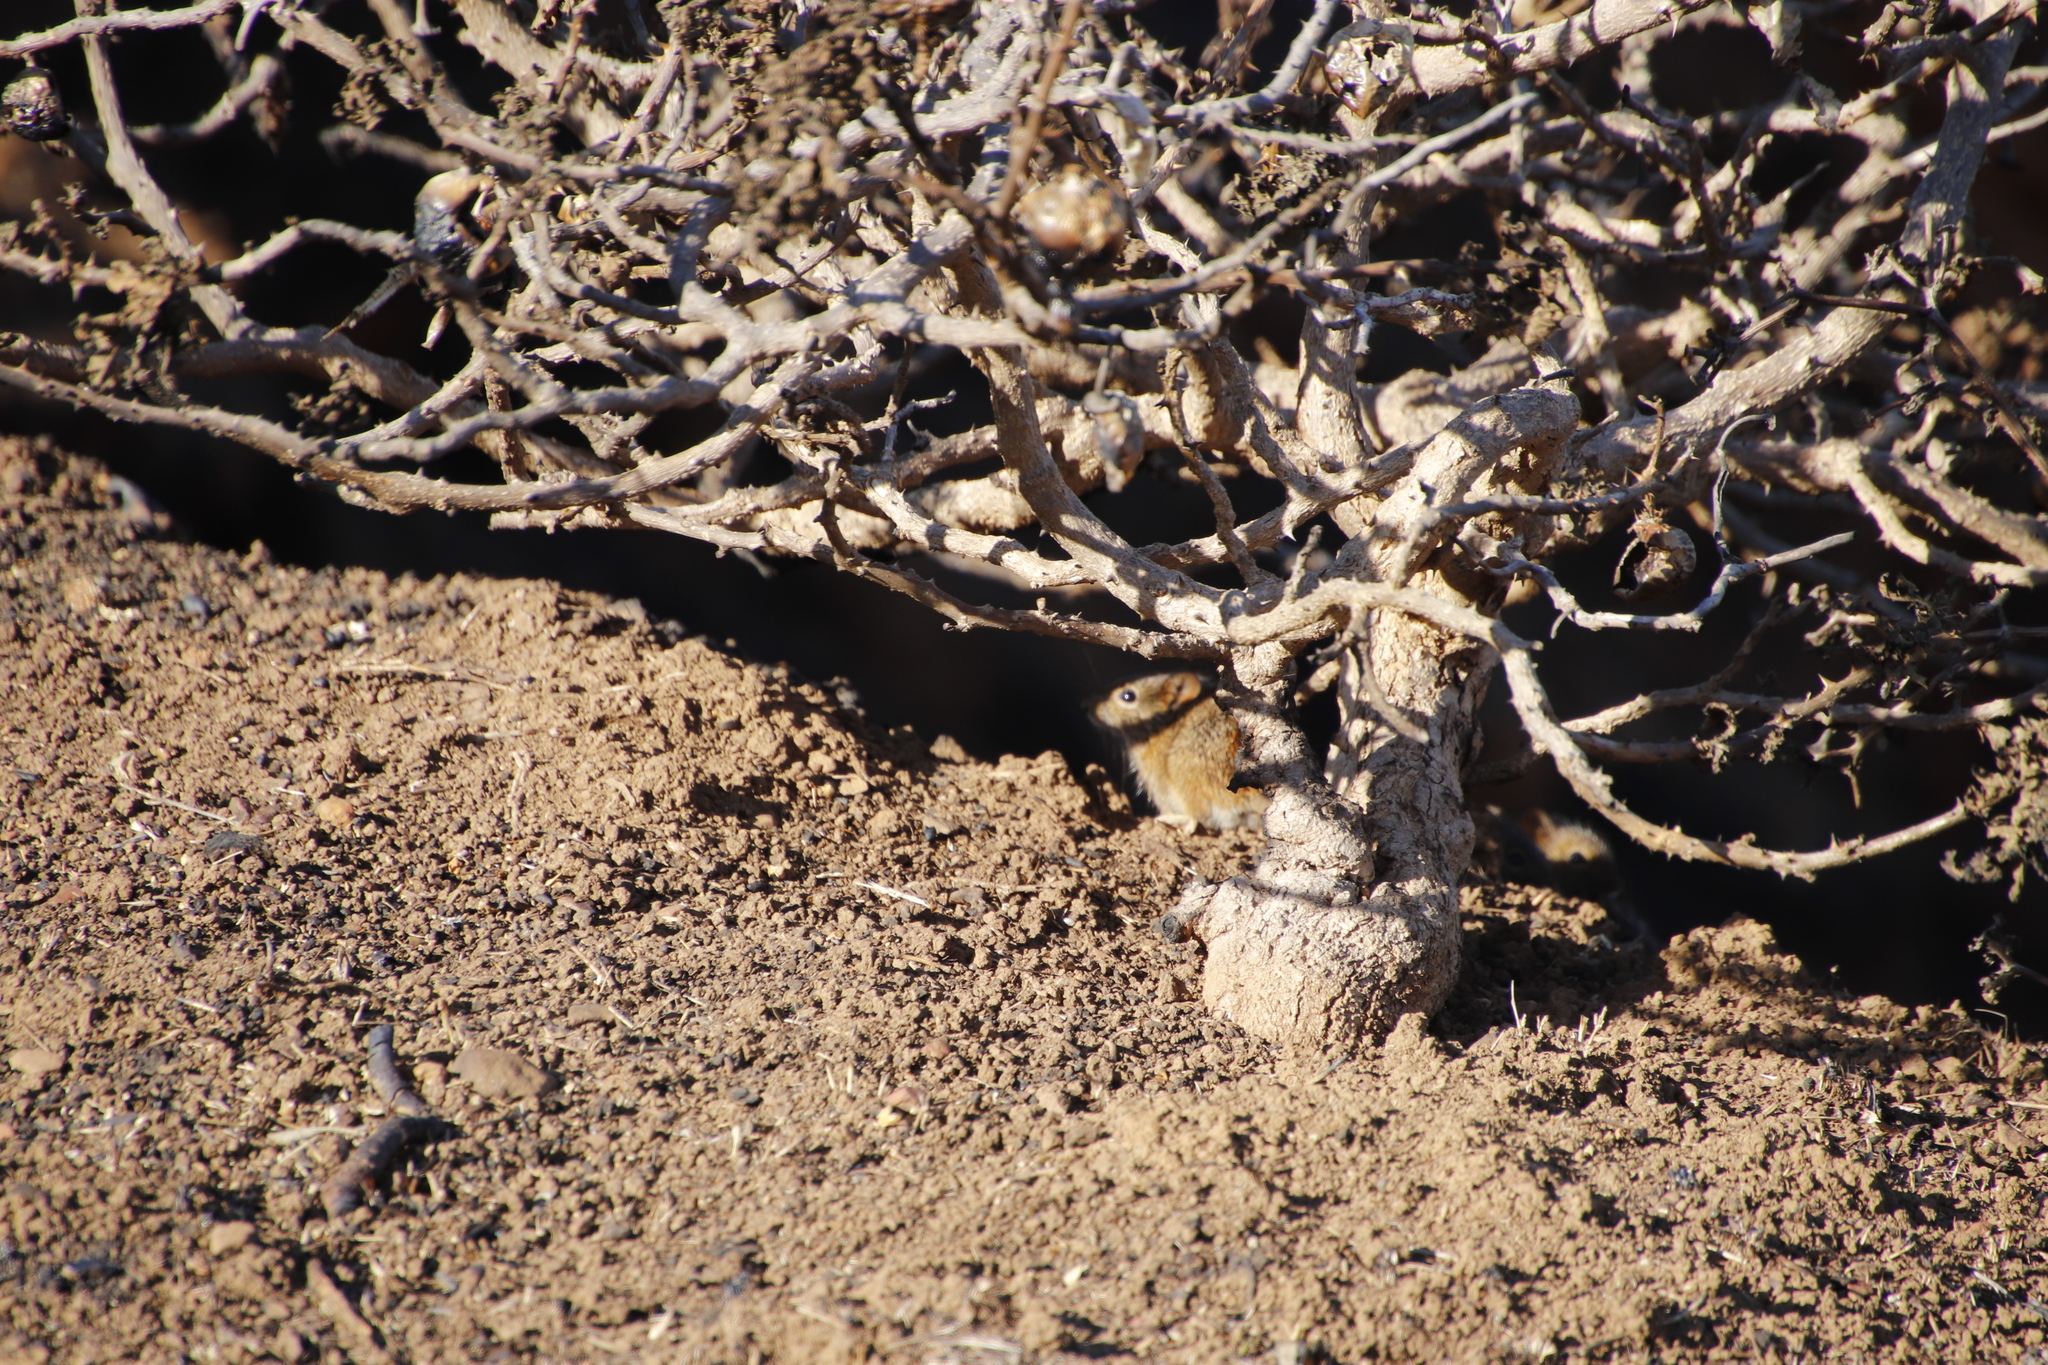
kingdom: Animalia
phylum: Chordata
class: Mammalia
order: Rodentia
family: Muridae
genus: Rhabdomys
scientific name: Rhabdomys pumilio
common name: Xeric four-striped grass rat
